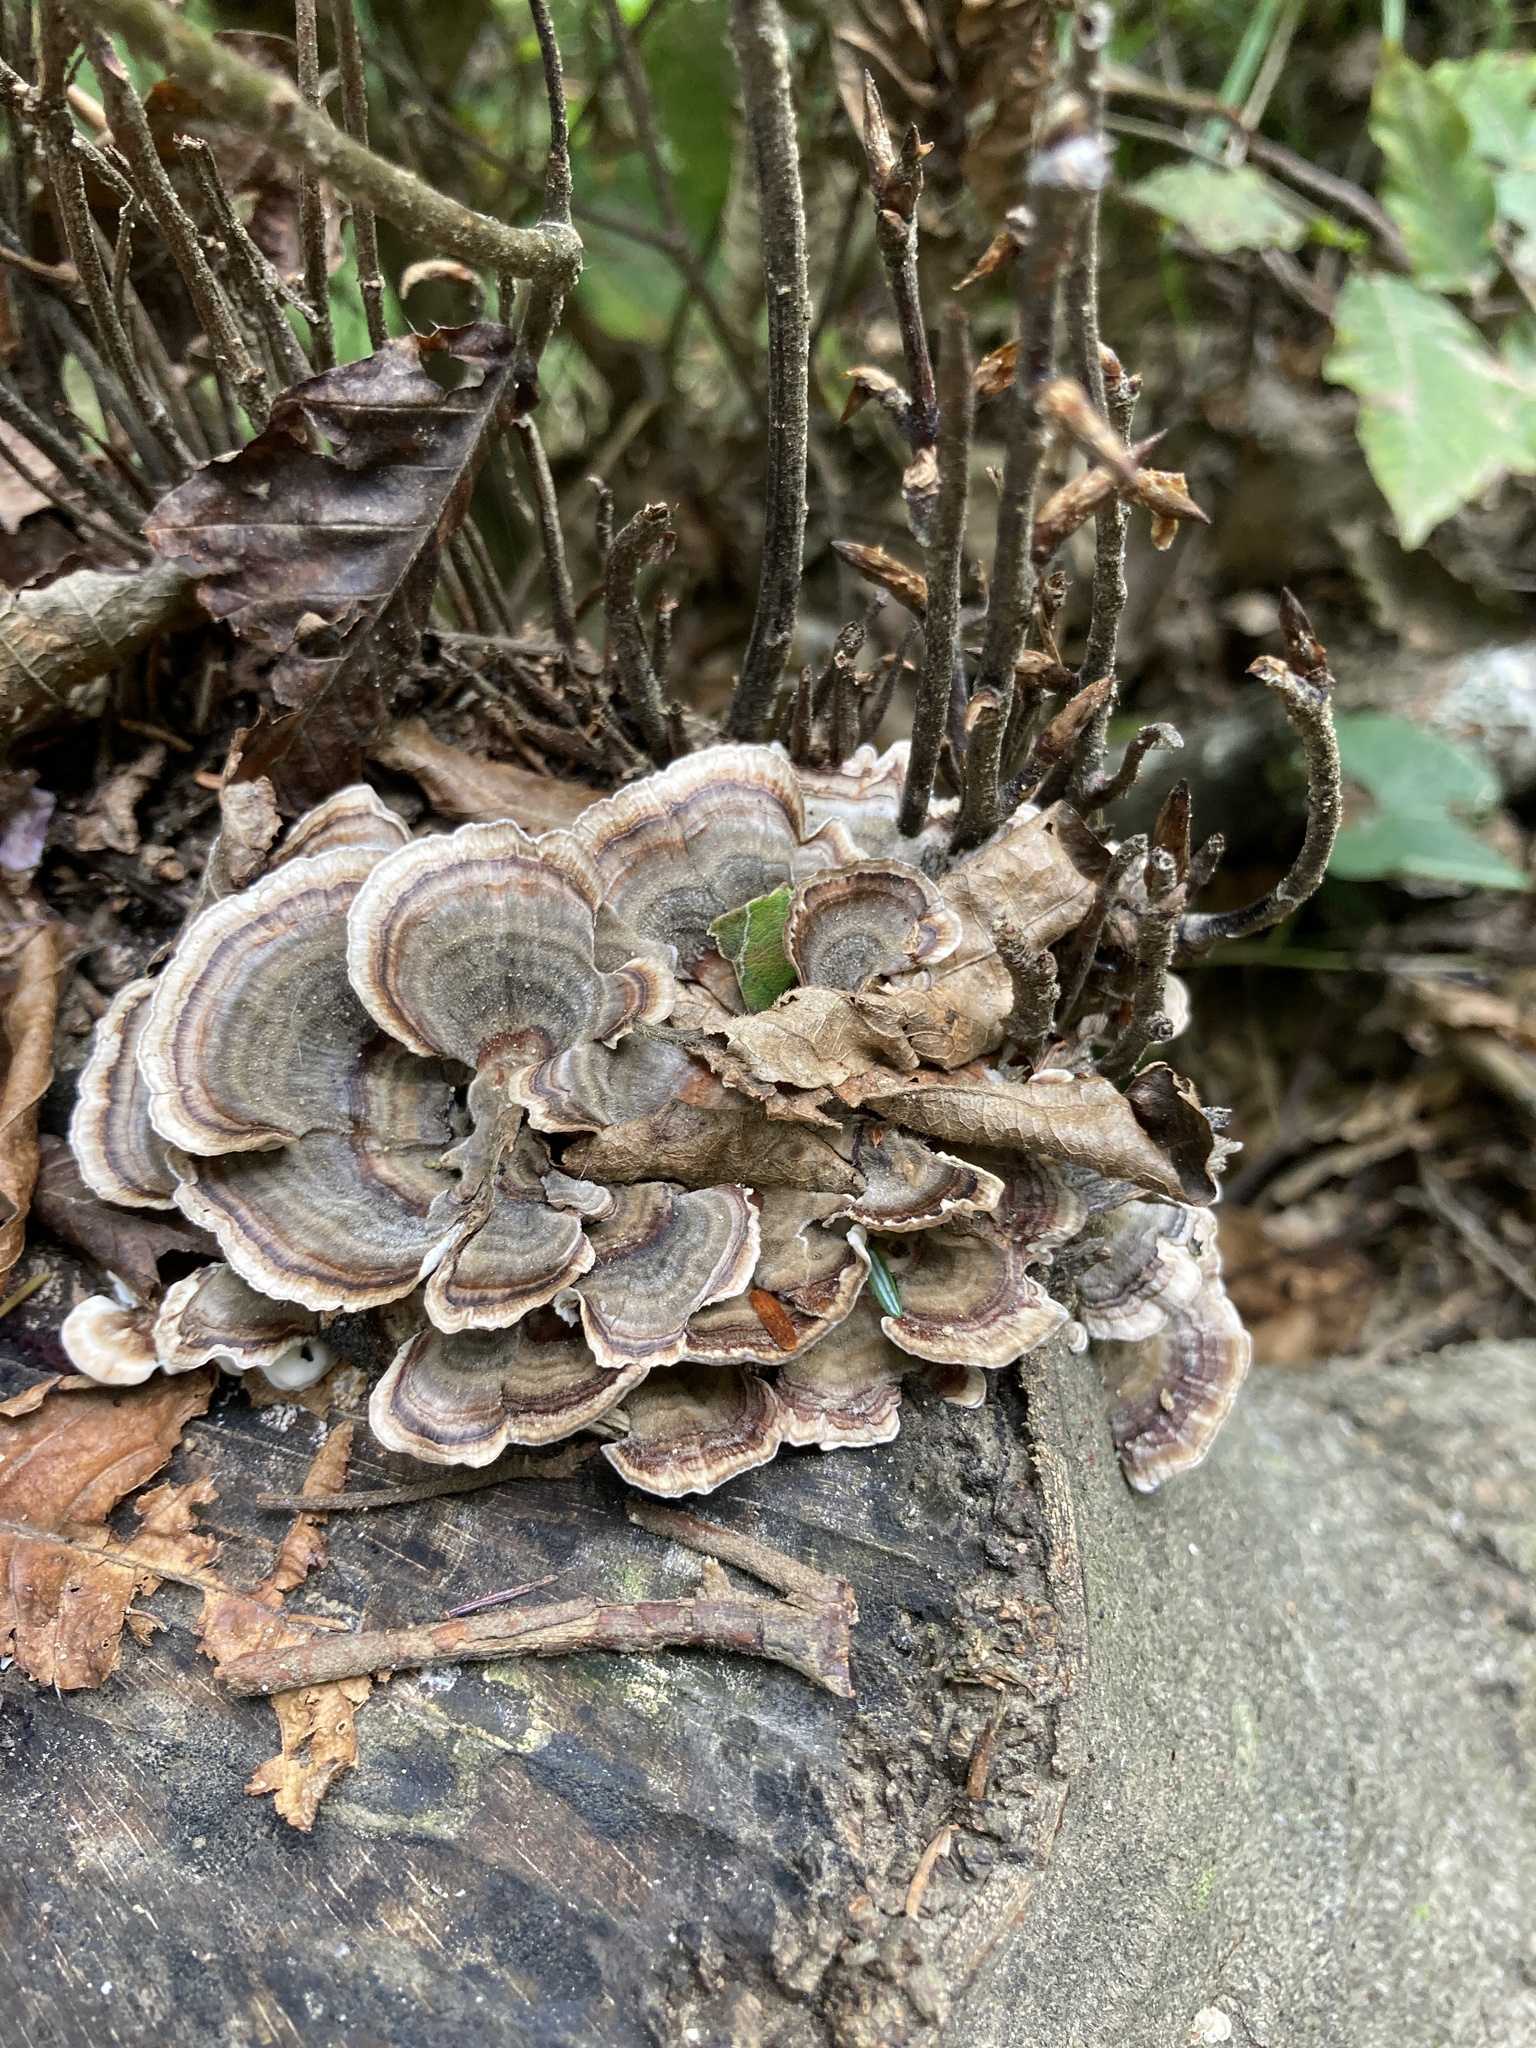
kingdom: Fungi
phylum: Basidiomycota
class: Agaricomycetes
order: Polyporales
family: Polyporaceae
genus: Trametes
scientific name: Trametes versicolor
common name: Turkeytail
